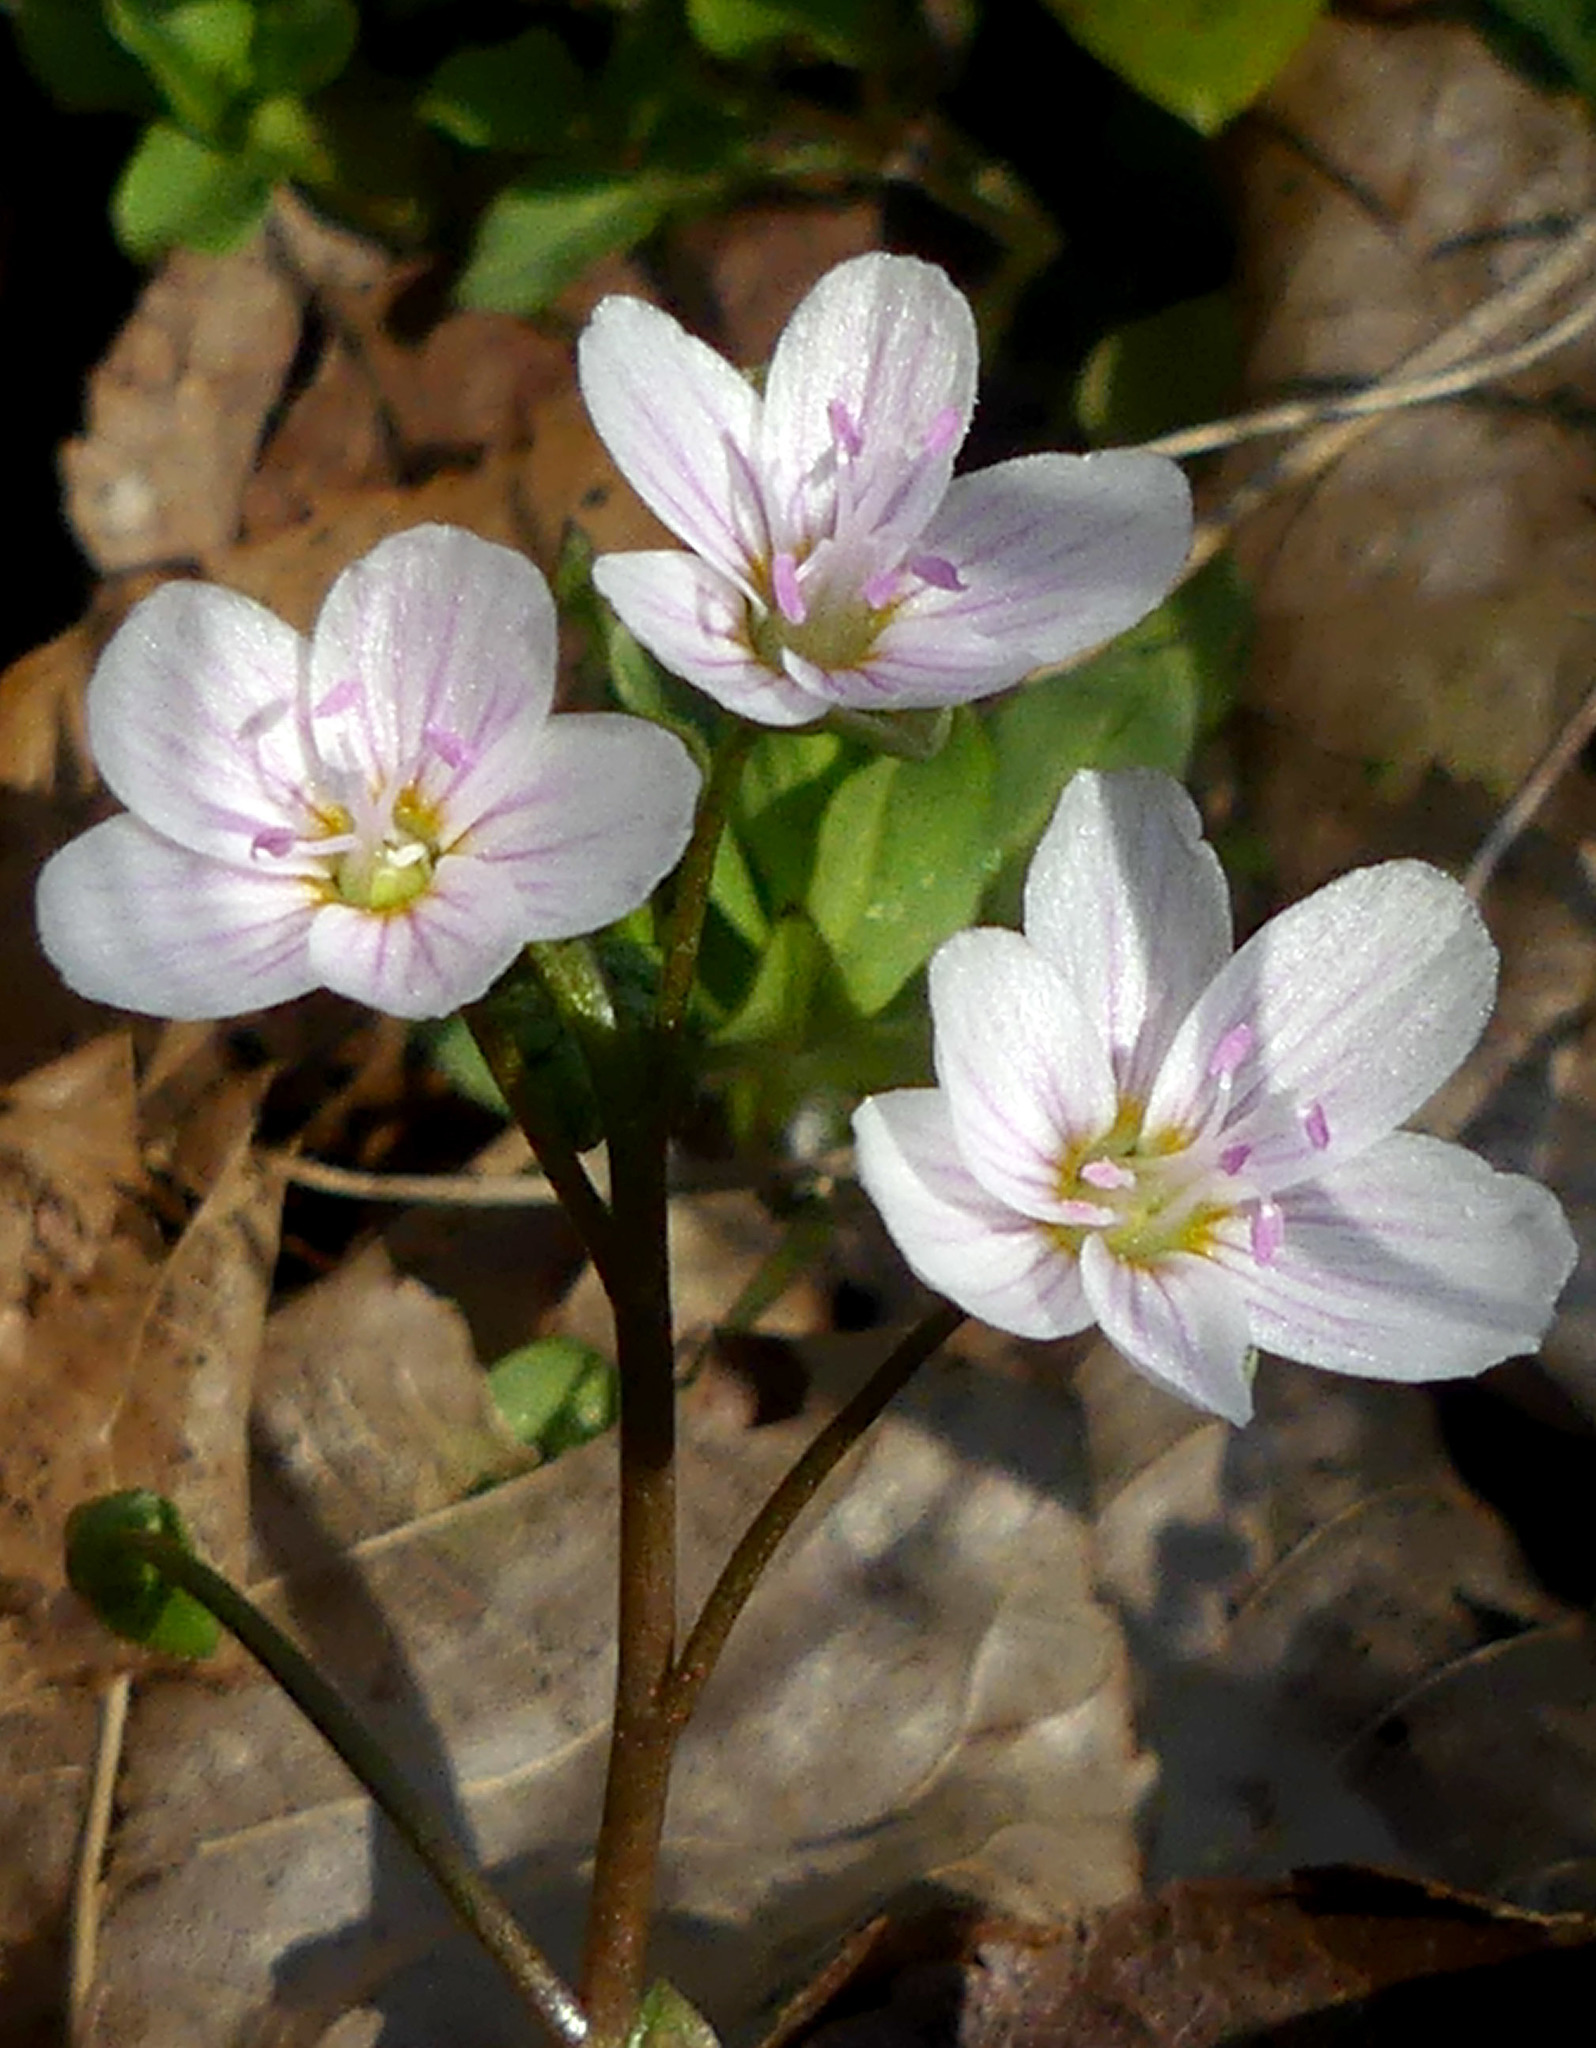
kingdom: Plantae
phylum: Tracheophyta
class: Magnoliopsida
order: Caryophyllales
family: Montiaceae
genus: Claytonia
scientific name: Claytonia virginica
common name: Virginia springbeauty
